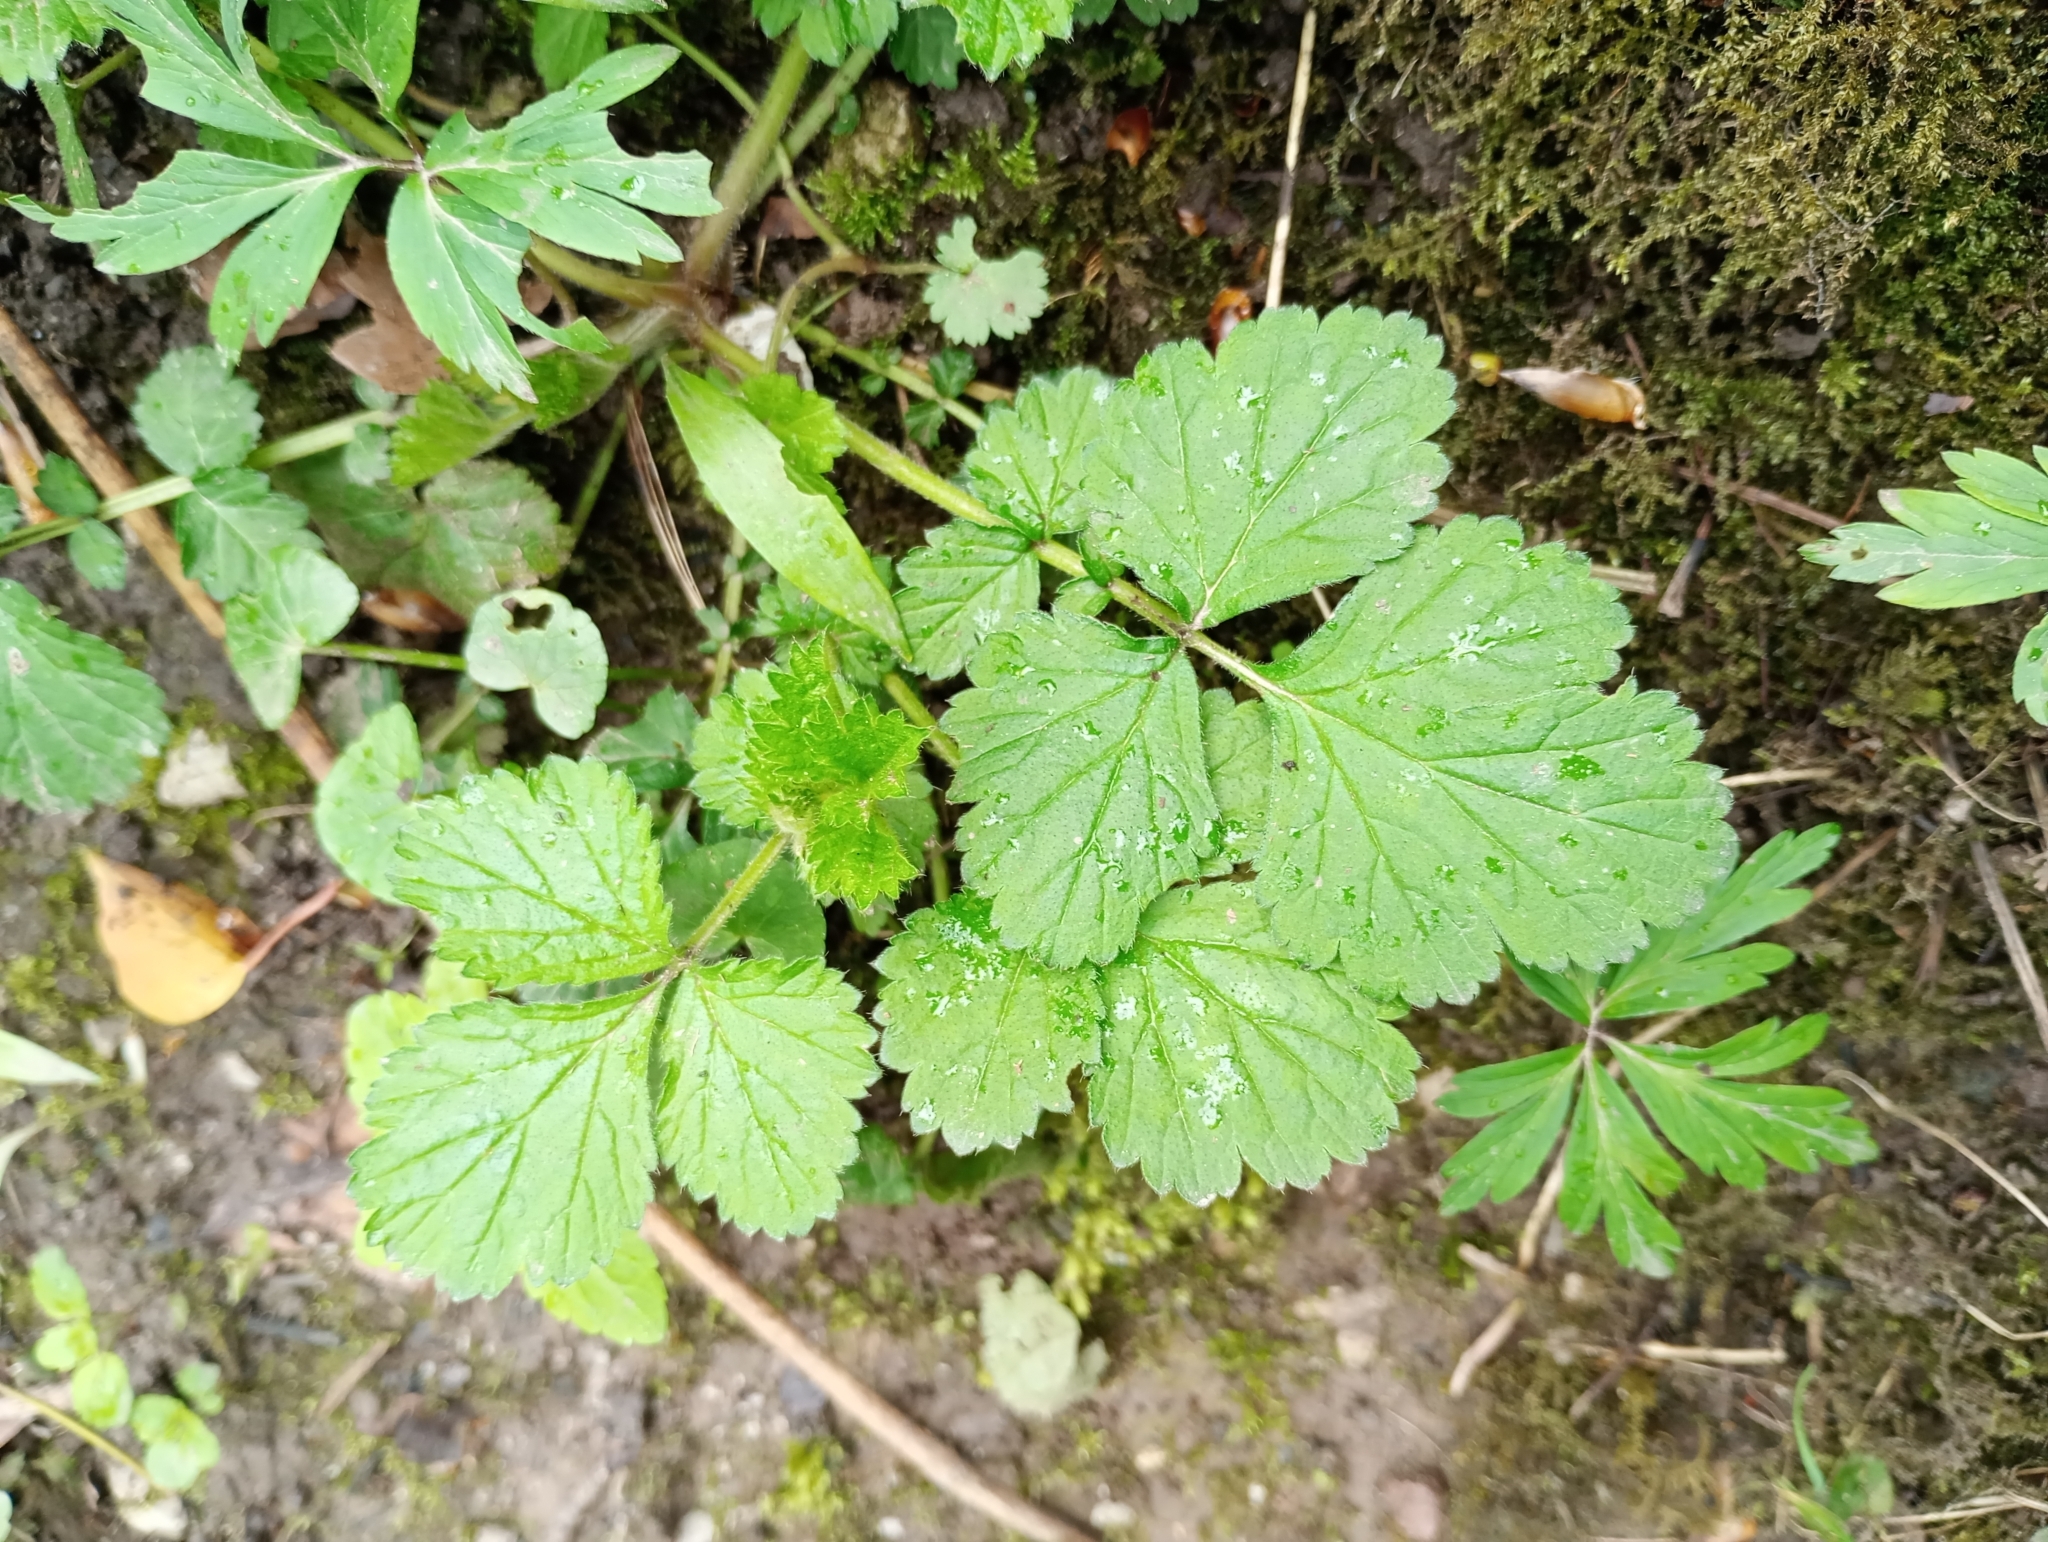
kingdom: Plantae
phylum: Tracheophyta
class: Magnoliopsida
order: Rosales
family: Rosaceae
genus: Geum
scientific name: Geum urbanum
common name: Wood avens
